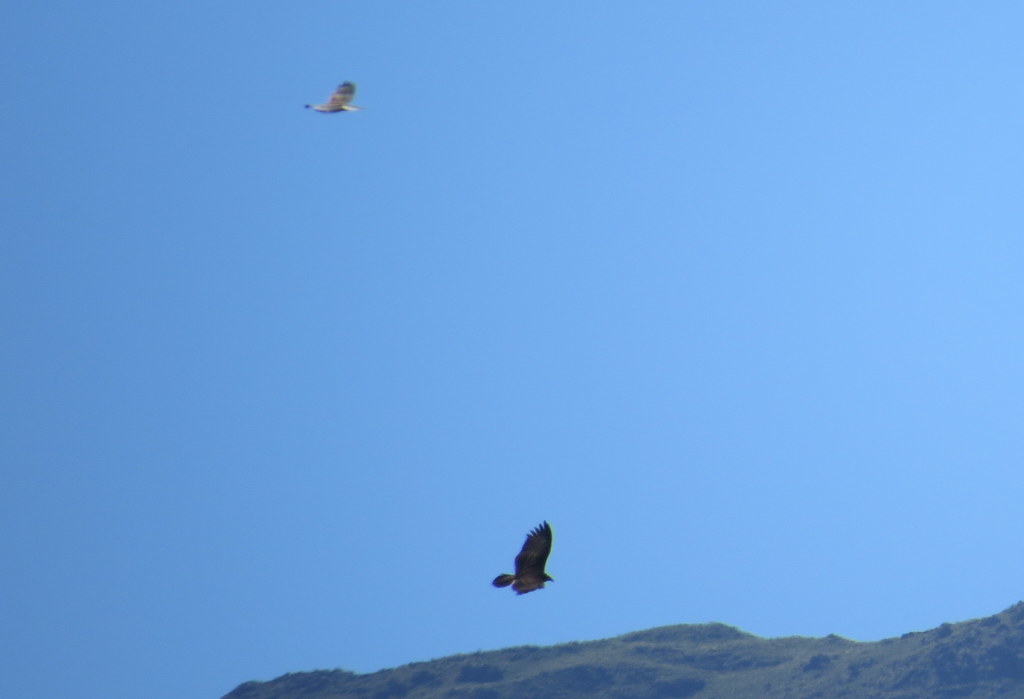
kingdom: Animalia
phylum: Chordata
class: Aves
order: Accipitriformes
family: Accipitridae
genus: Geranoaetus
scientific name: Geranoaetus melanoleucus
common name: Black-chested buzzard-eagle
